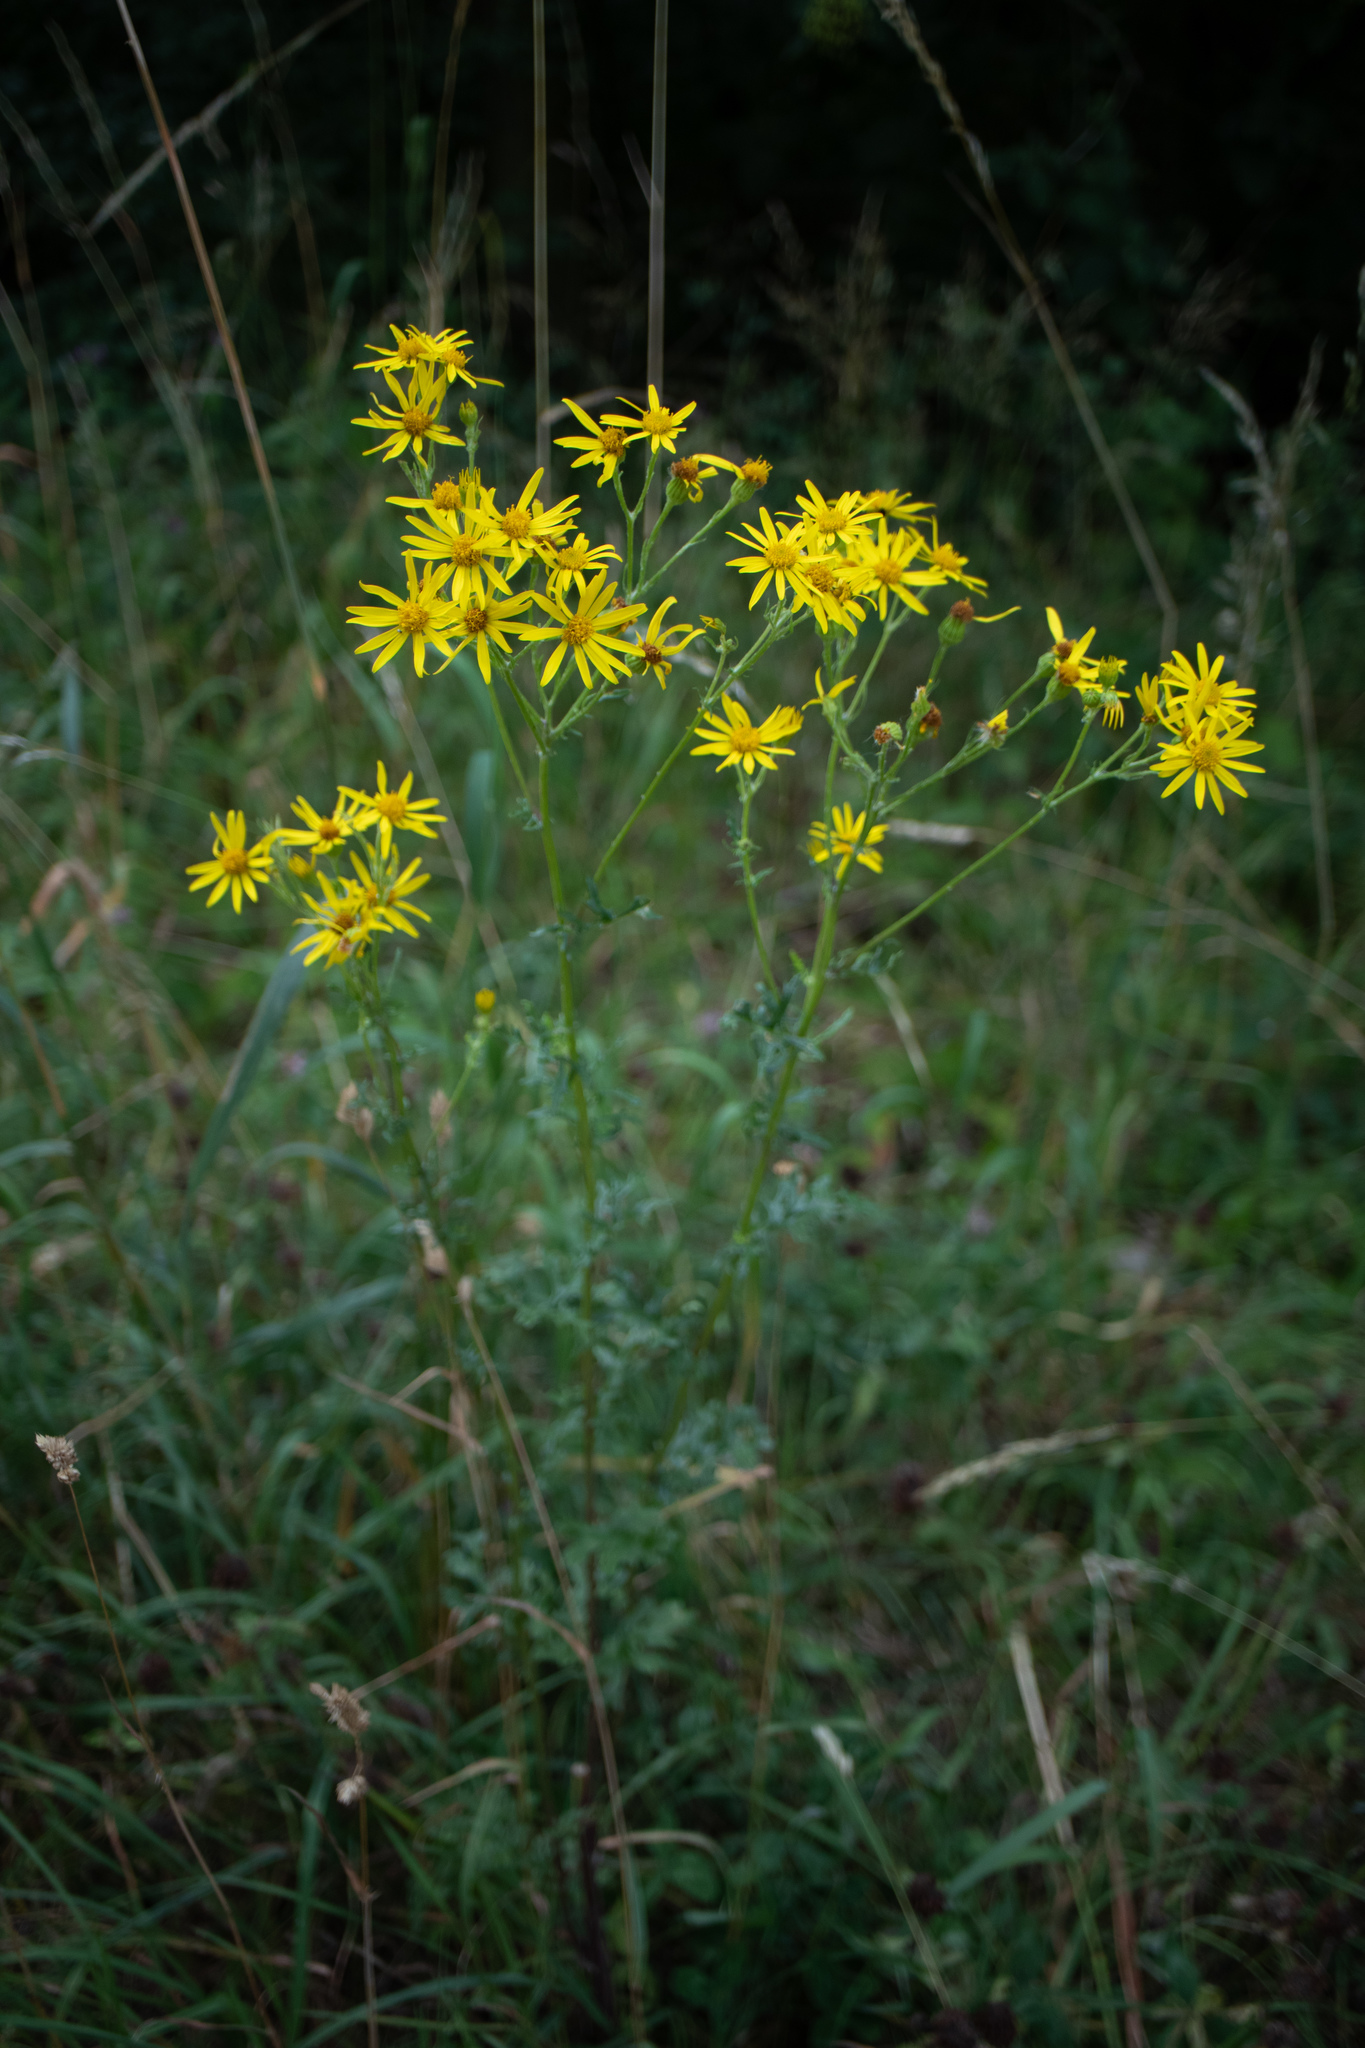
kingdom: Plantae
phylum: Tracheophyta
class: Magnoliopsida
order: Asterales
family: Asteraceae
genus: Jacobaea
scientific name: Jacobaea vulgaris
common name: Stinking willie
